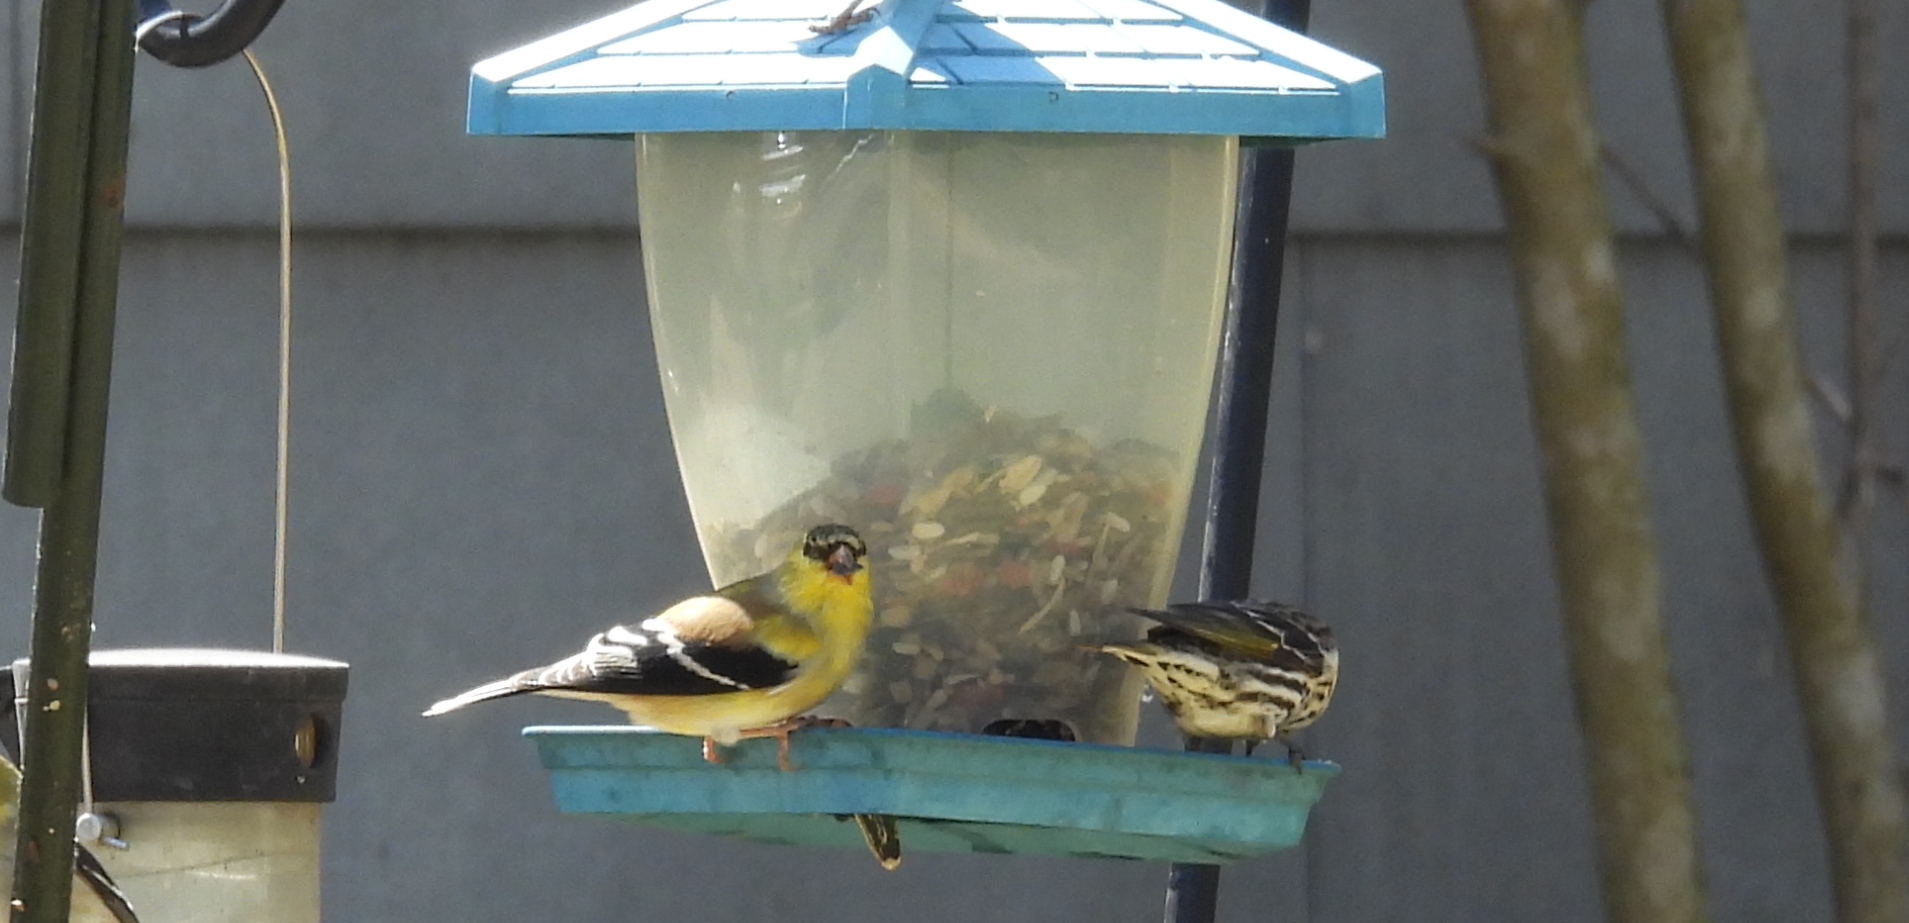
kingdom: Animalia
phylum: Chordata
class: Aves
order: Passeriformes
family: Fringillidae
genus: Spinus
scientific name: Spinus pinus
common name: Pine siskin
